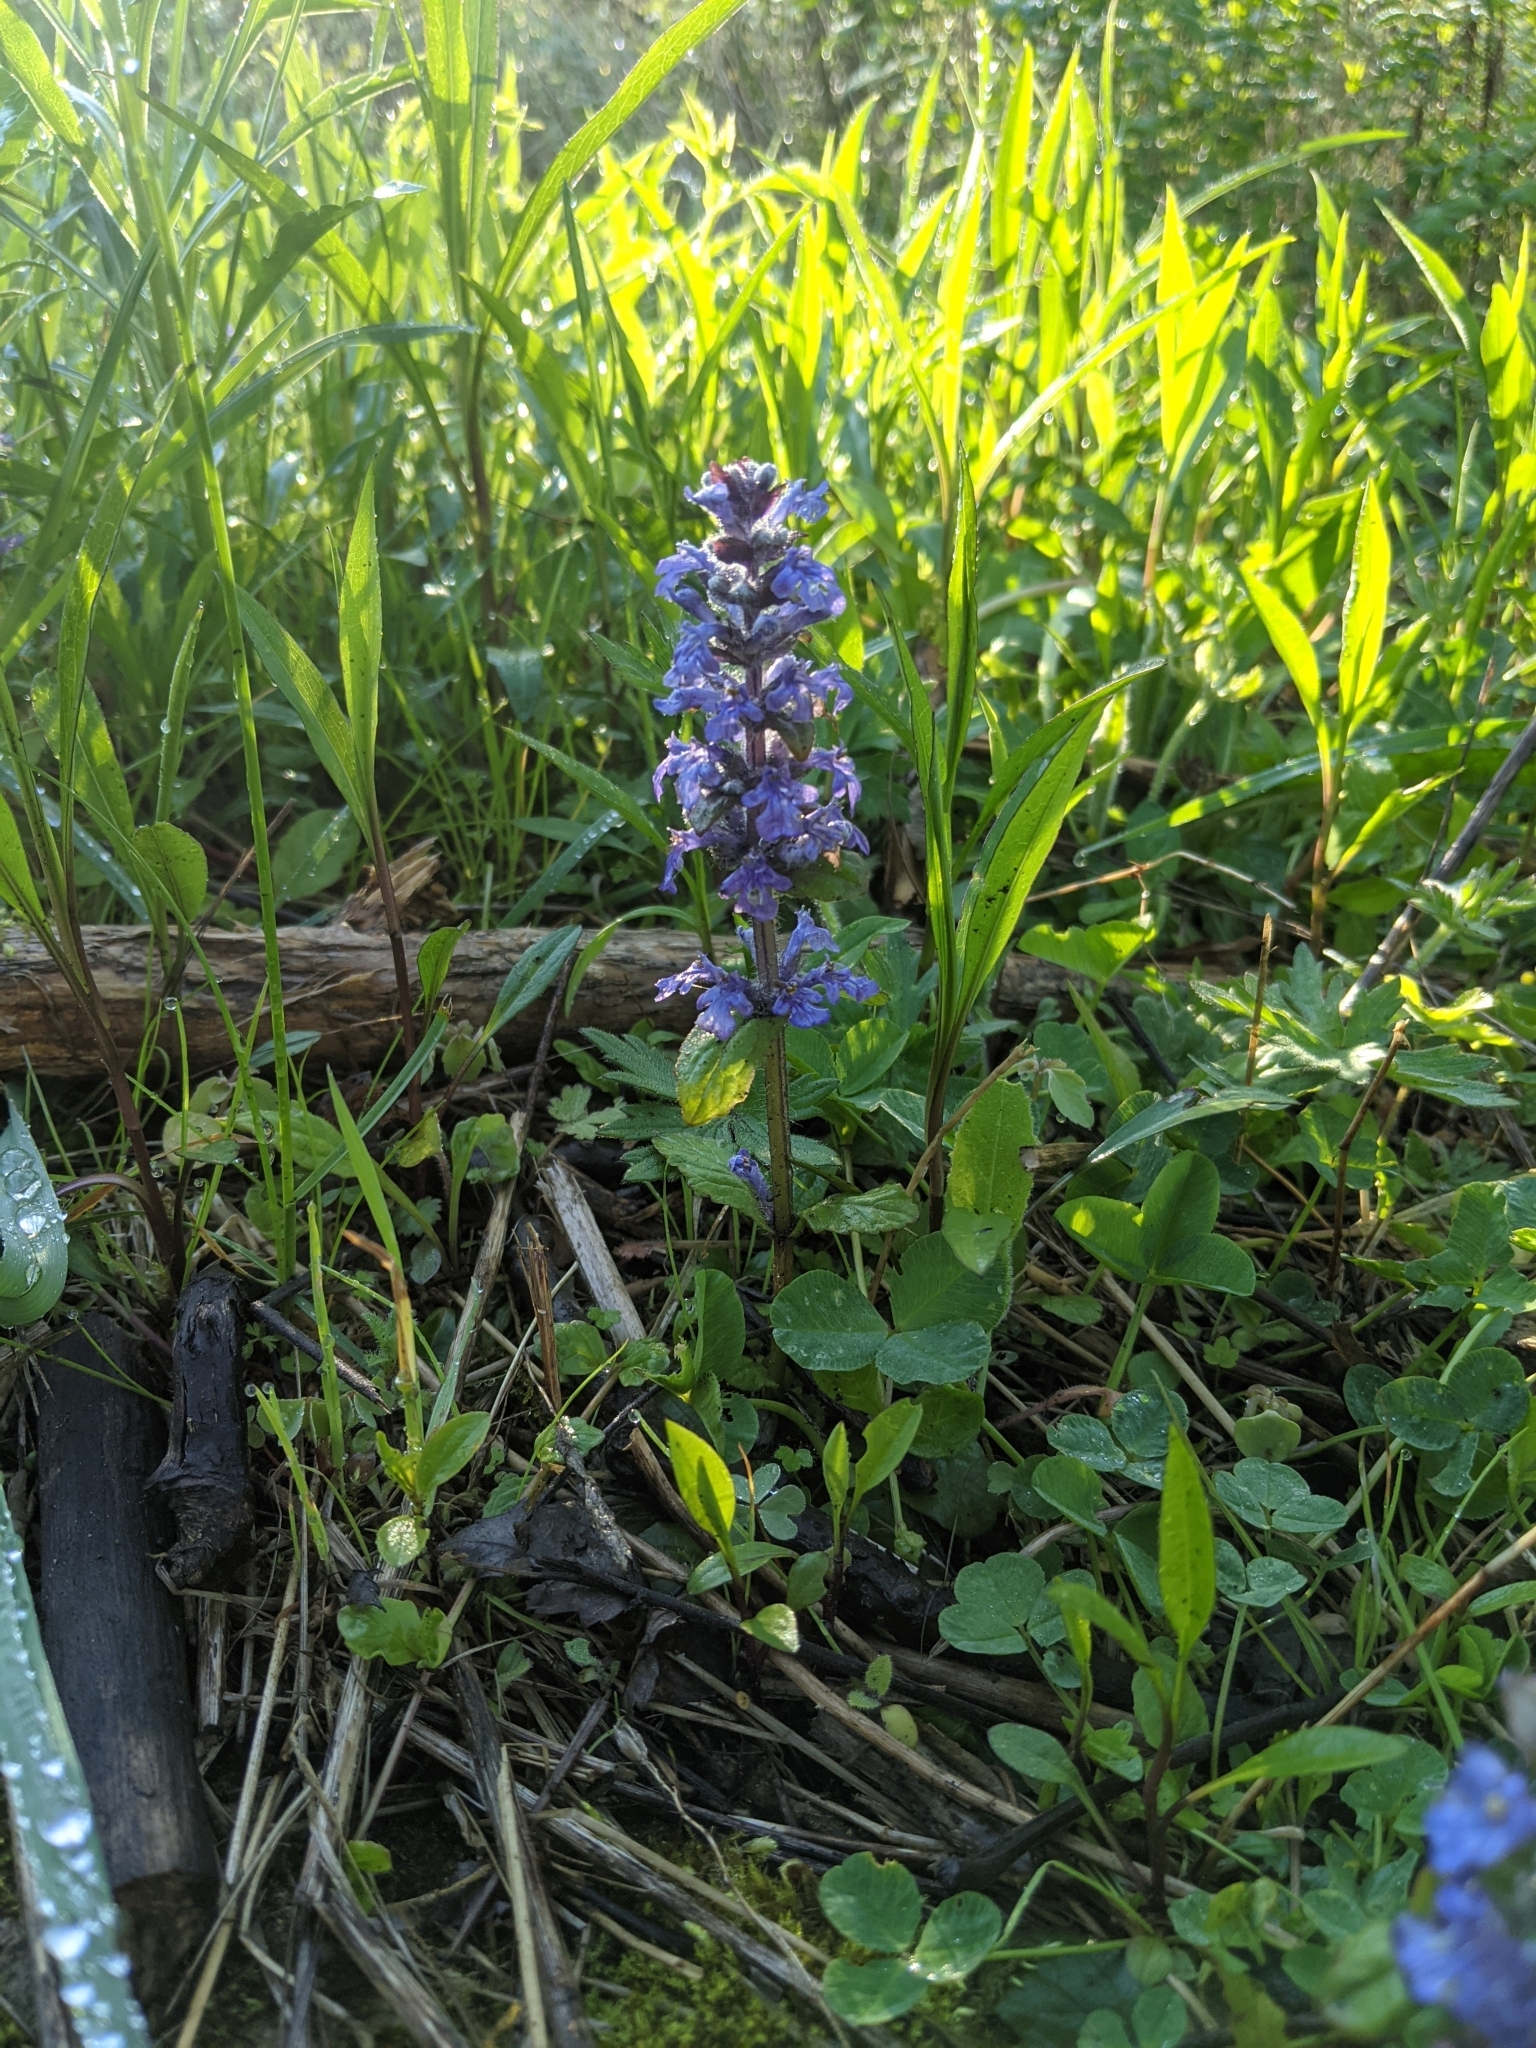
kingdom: Plantae
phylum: Tracheophyta
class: Magnoliopsida
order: Lamiales
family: Lamiaceae
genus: Ajuga
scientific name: Ajuga reptans
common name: Bugle
